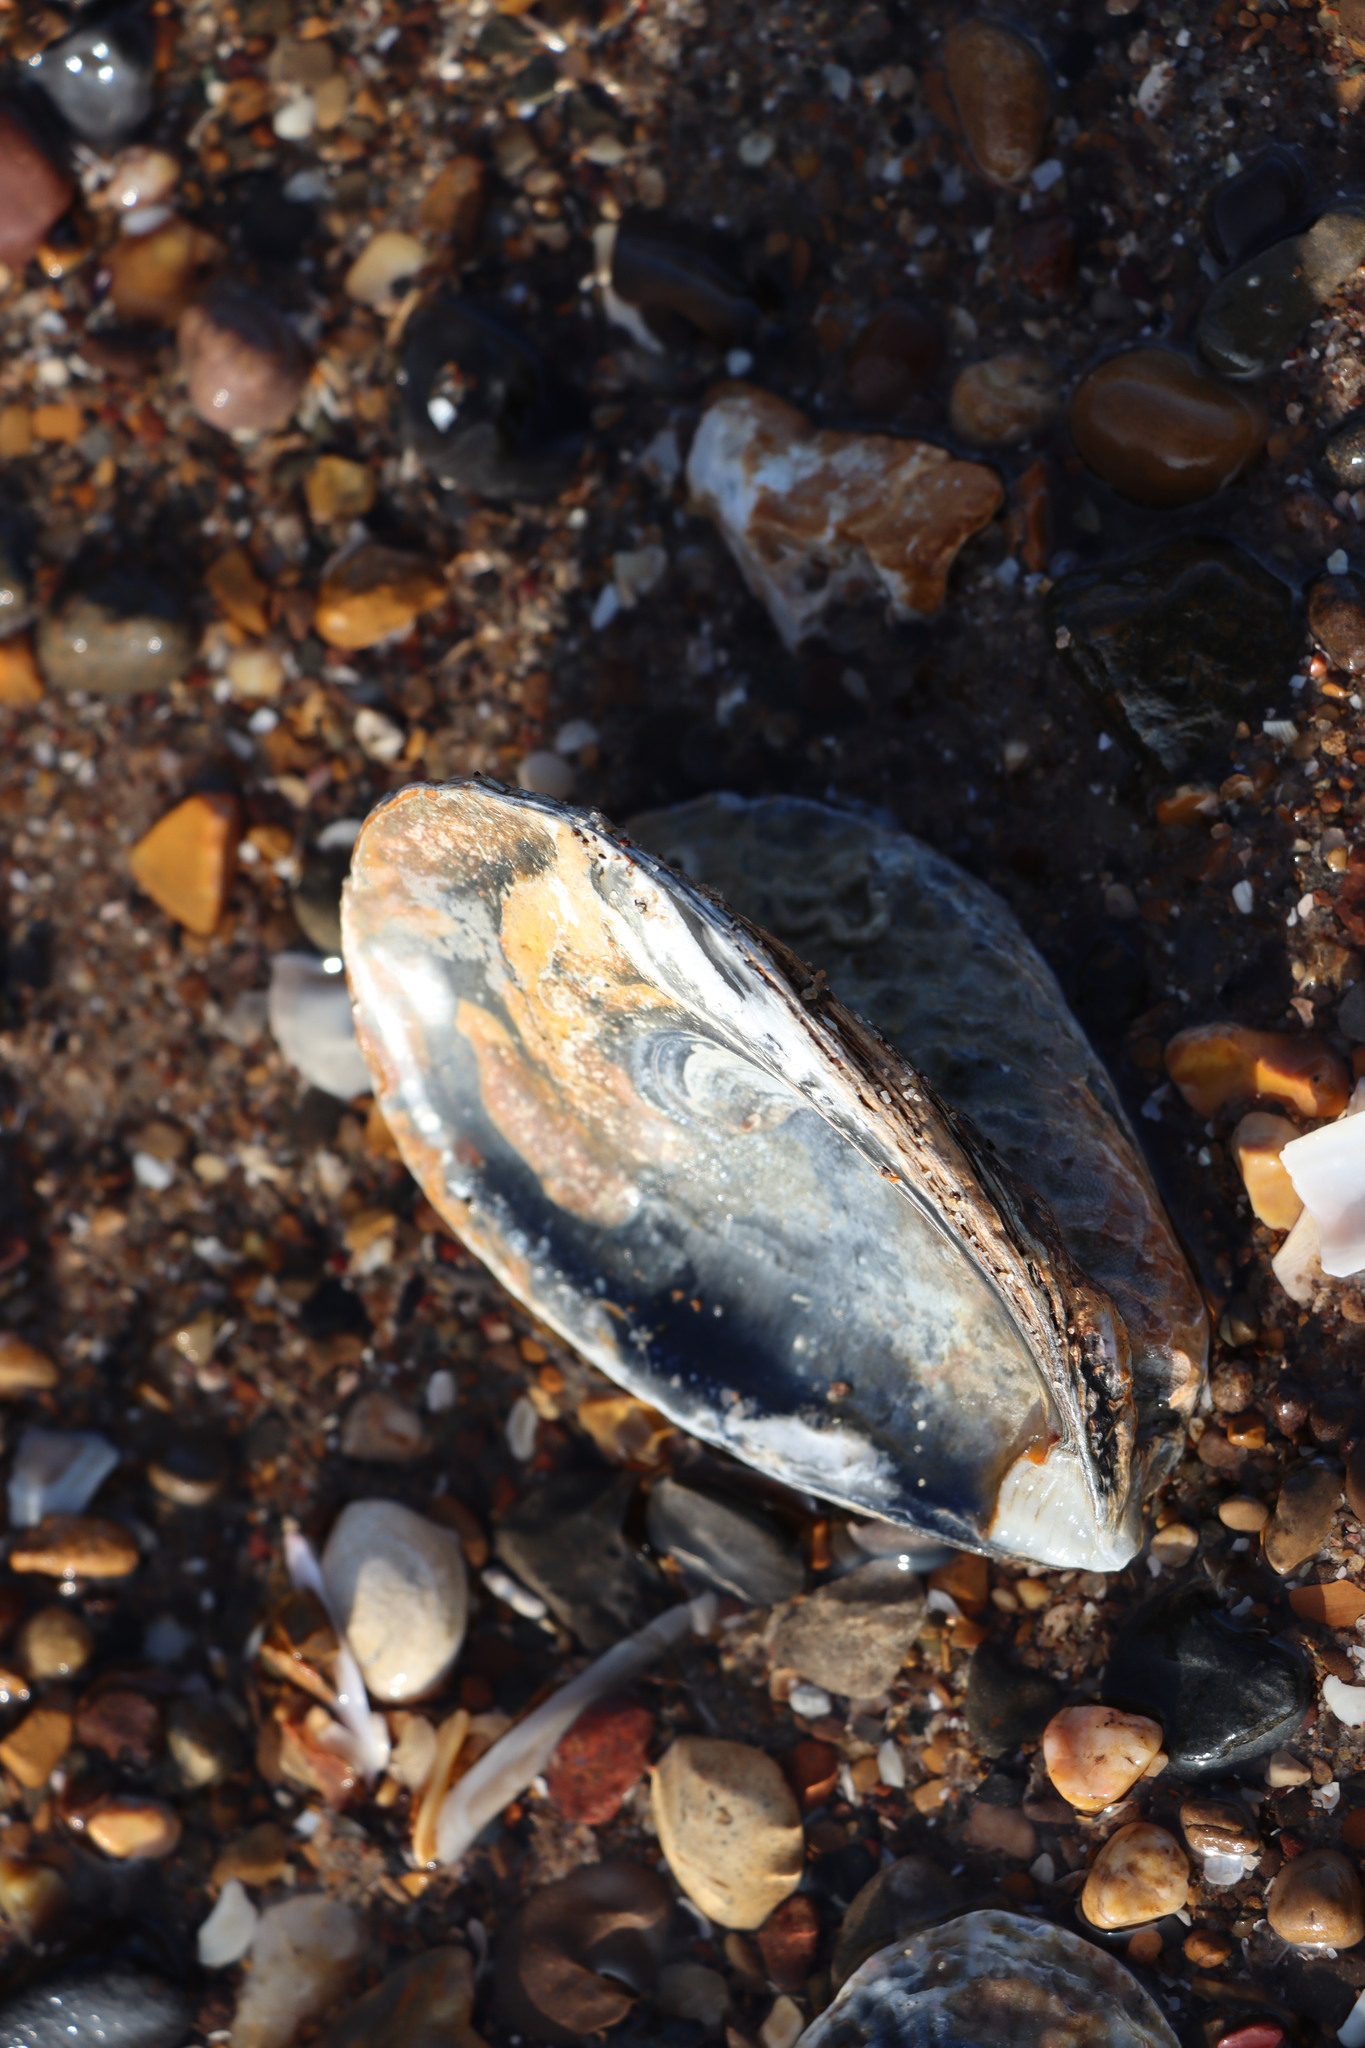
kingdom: Animalia
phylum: Mollusca
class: Bivalvia
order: Mytilida
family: Mytilidae
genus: Mytilus
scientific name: Mytilus edulis
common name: Blue mussel
